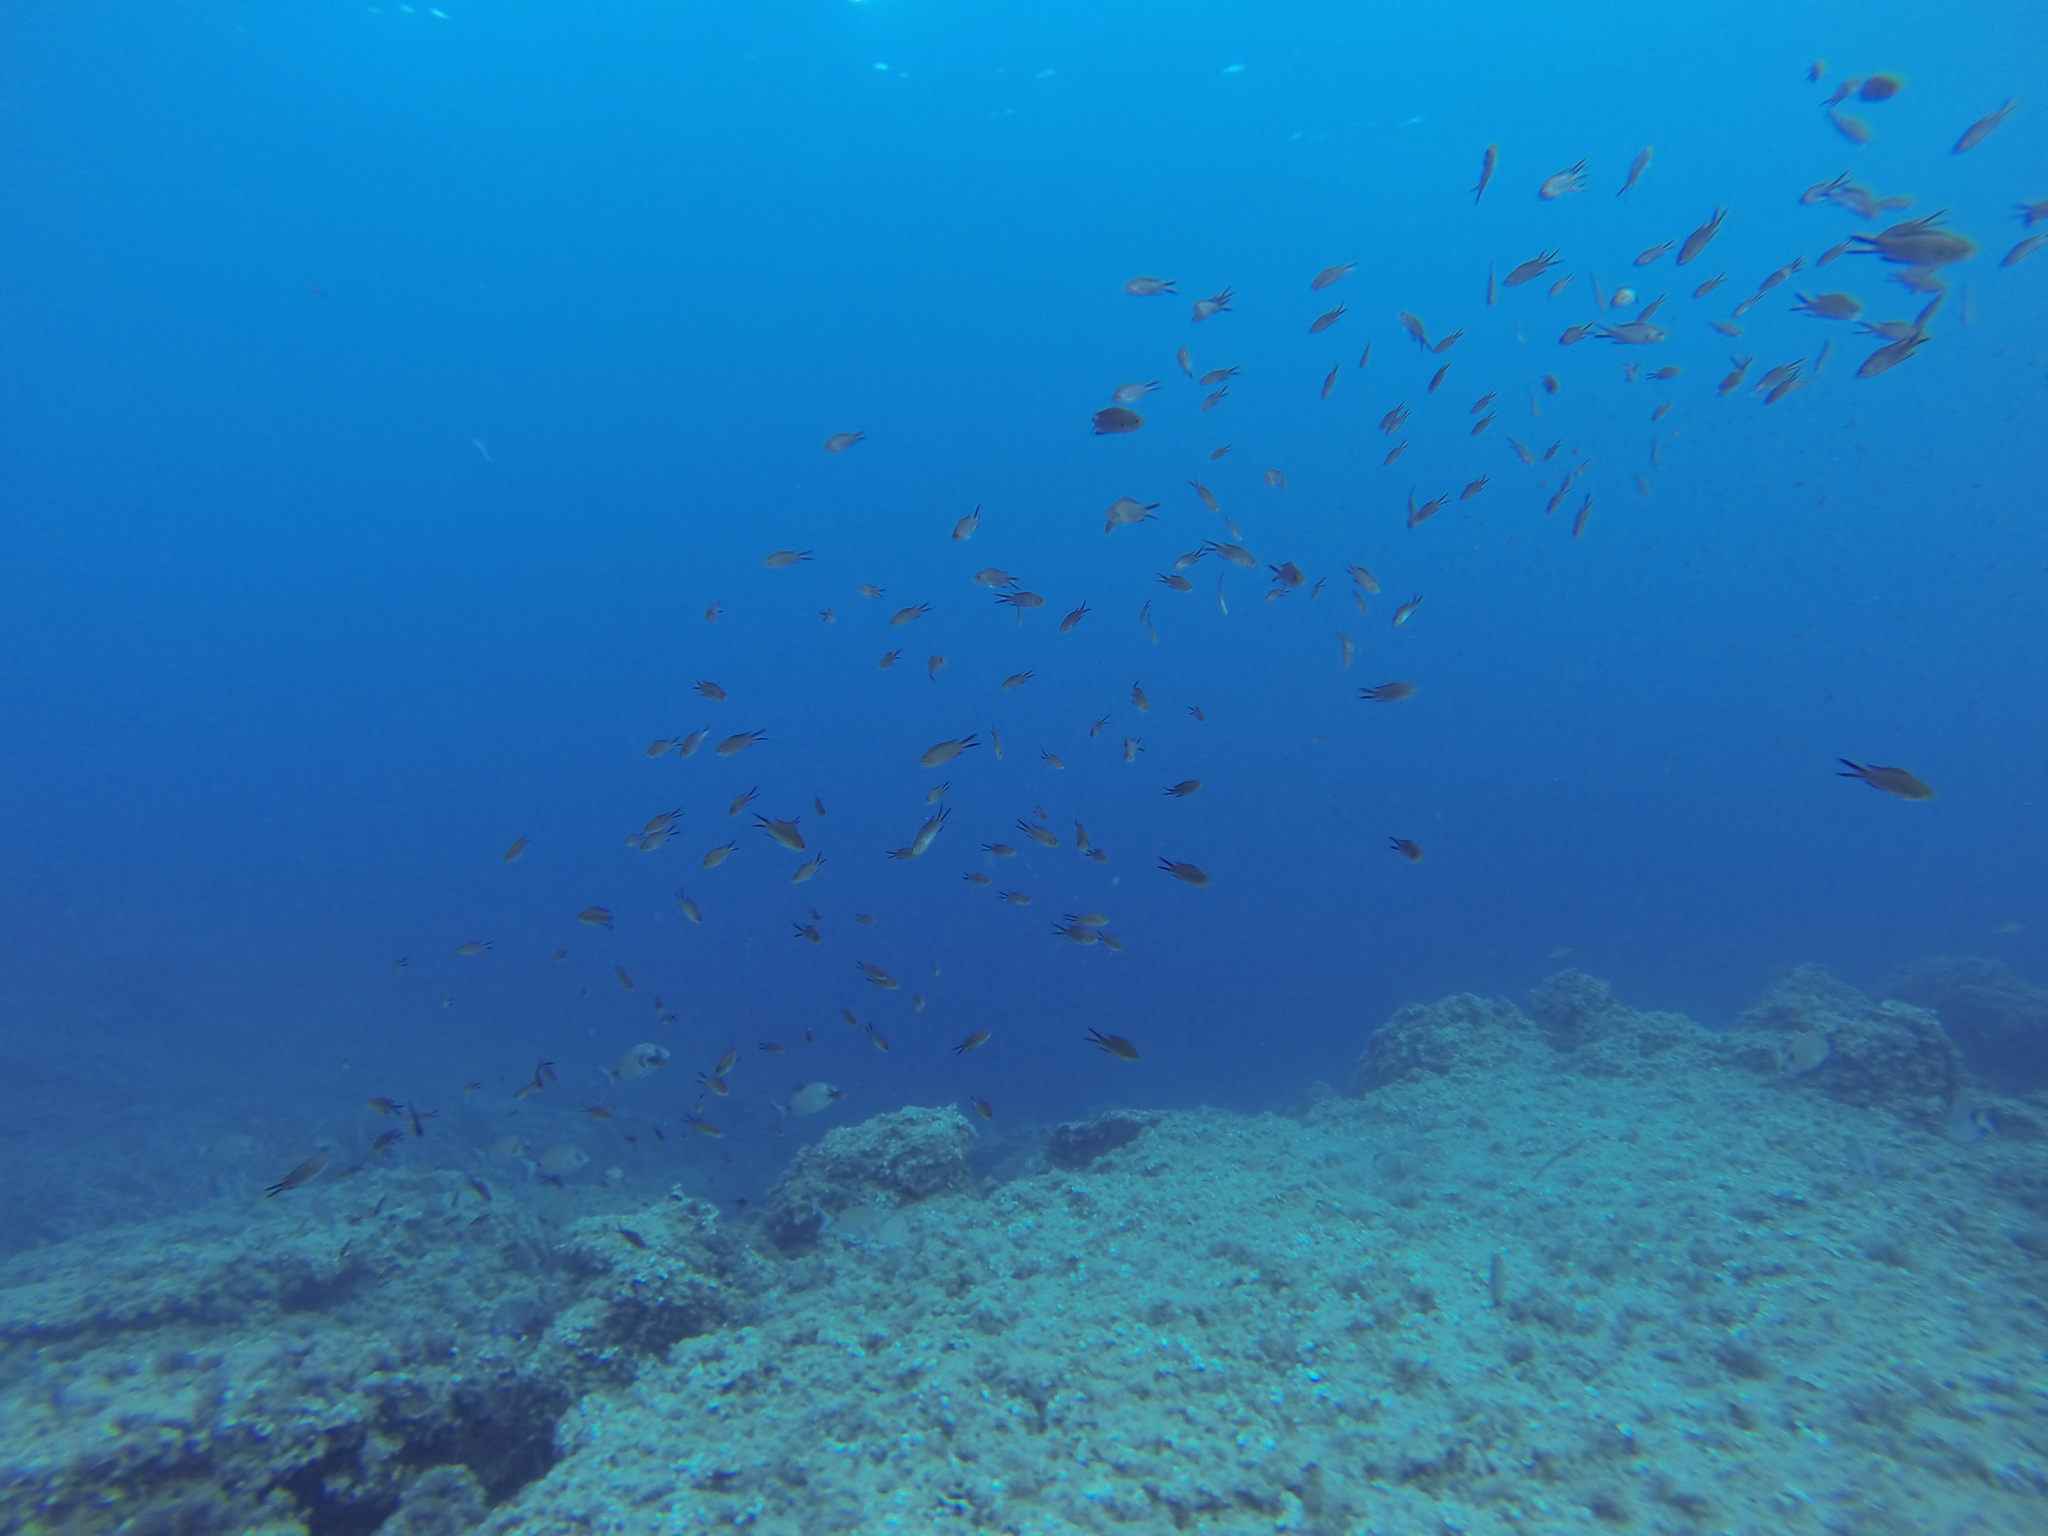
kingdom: Animalia
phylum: Chordata
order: Perciformes
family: Pomacentridae
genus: Chromis
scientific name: Chromis chromis
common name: Damselfish
